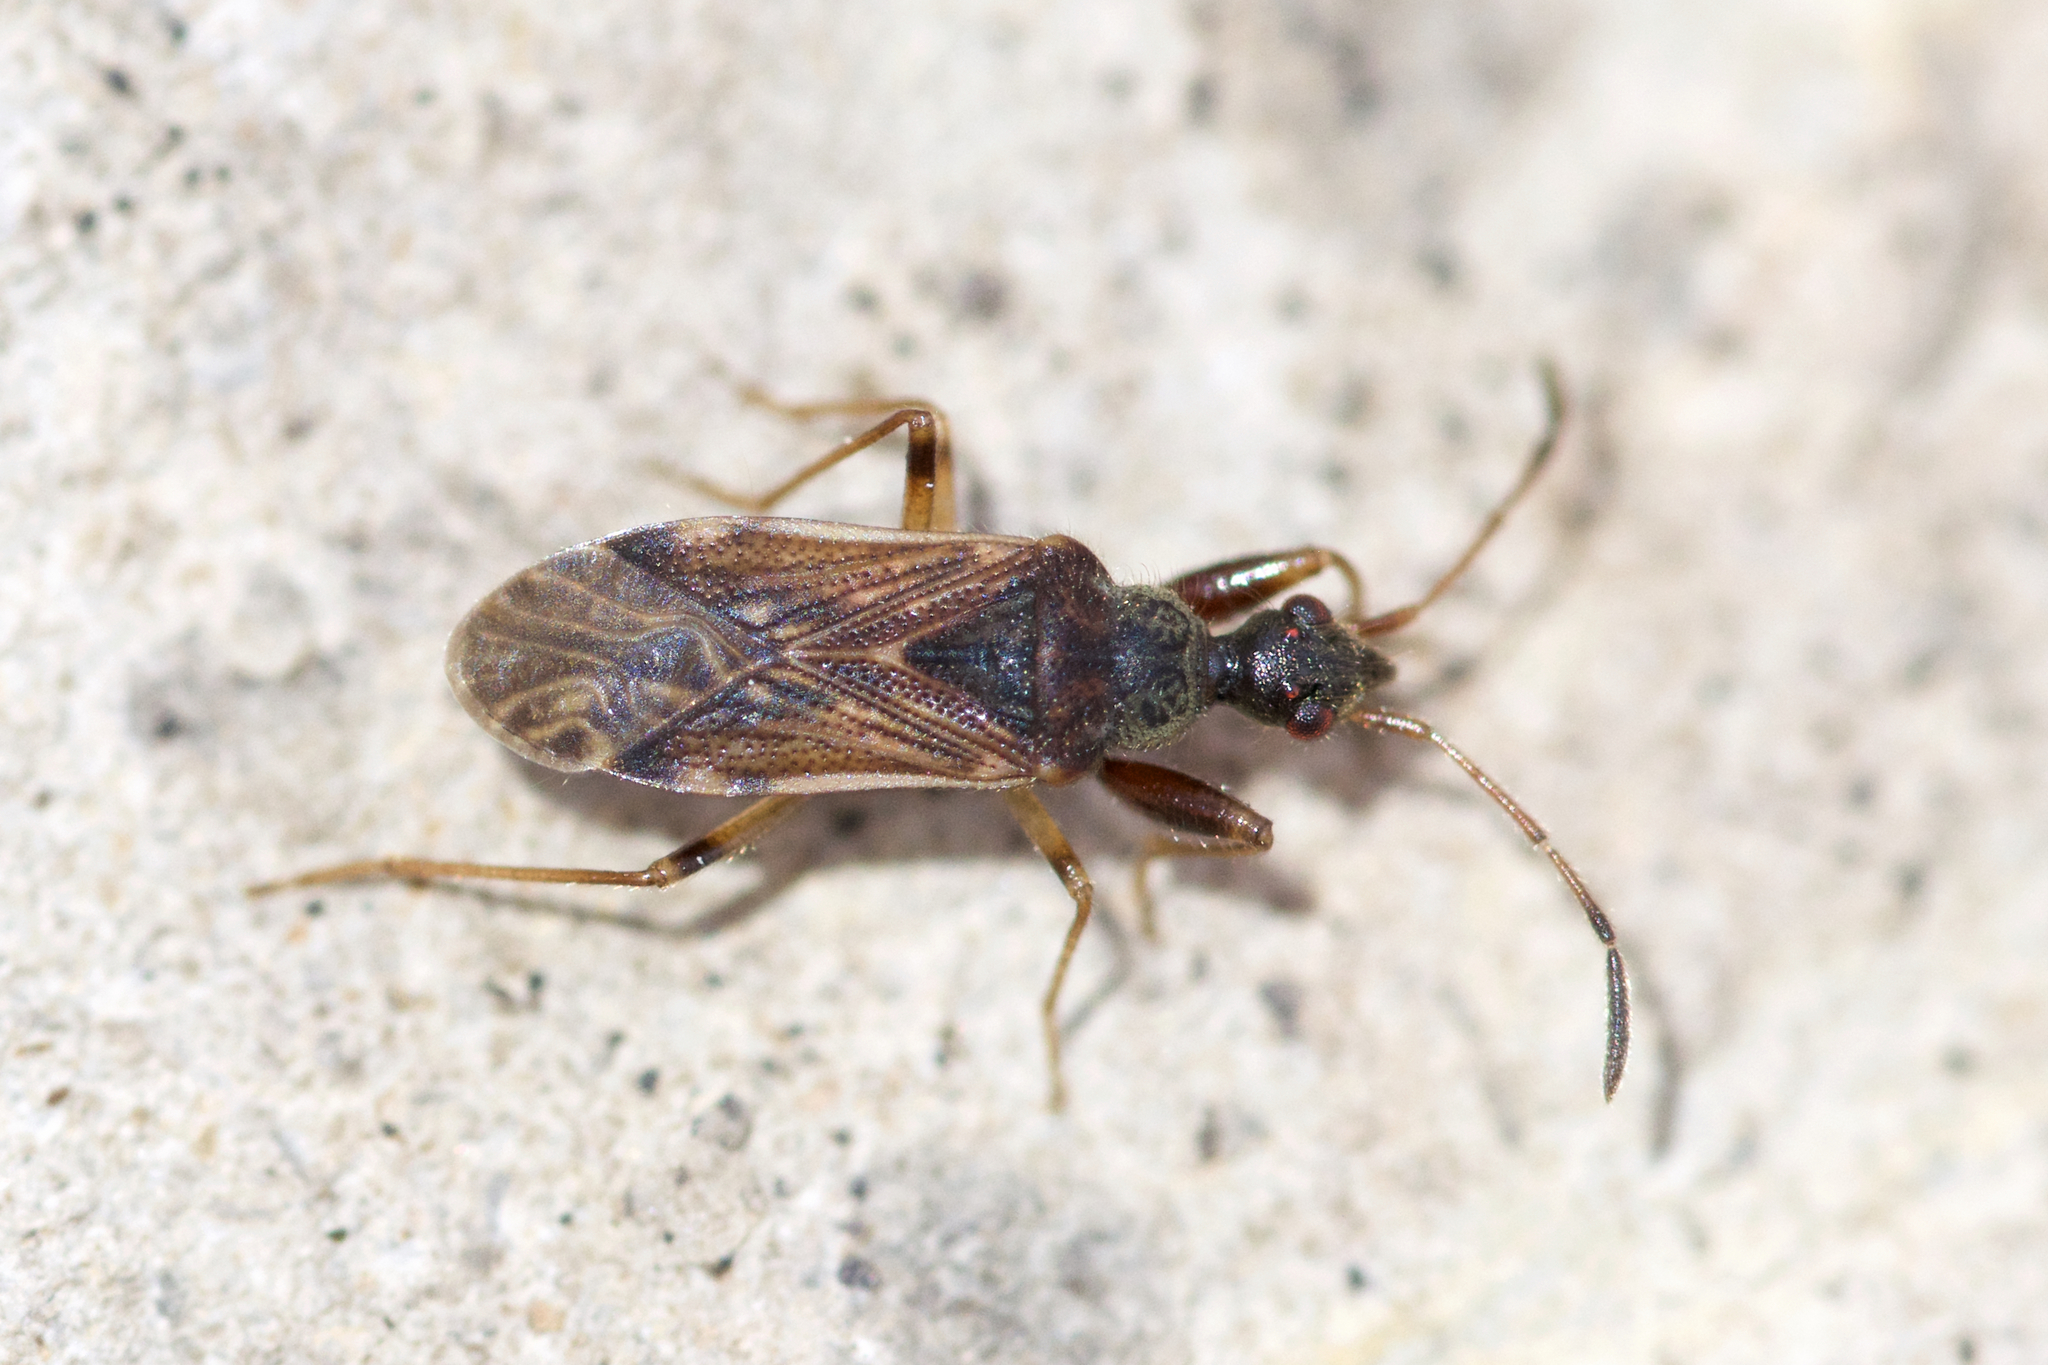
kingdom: Animalia
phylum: Arthropoda
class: Insecta
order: Hemiptera
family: Rhyparochromidae
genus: Heraeus
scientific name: Heraeus plebejus
